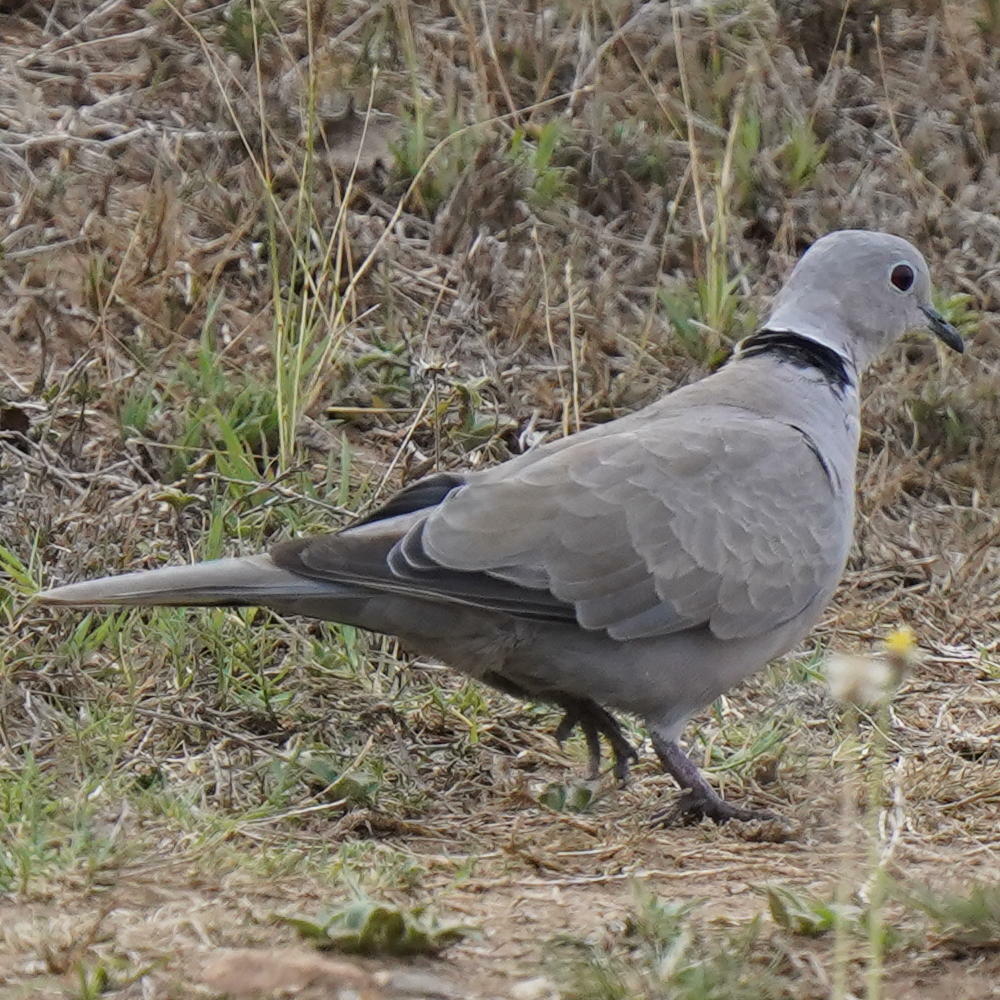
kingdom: Animalia
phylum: Chordata
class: Aves
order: Columbiformes
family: Columbidae
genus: Streptopelia
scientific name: Streptopelia decaocto
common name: Eurasian collared dove
